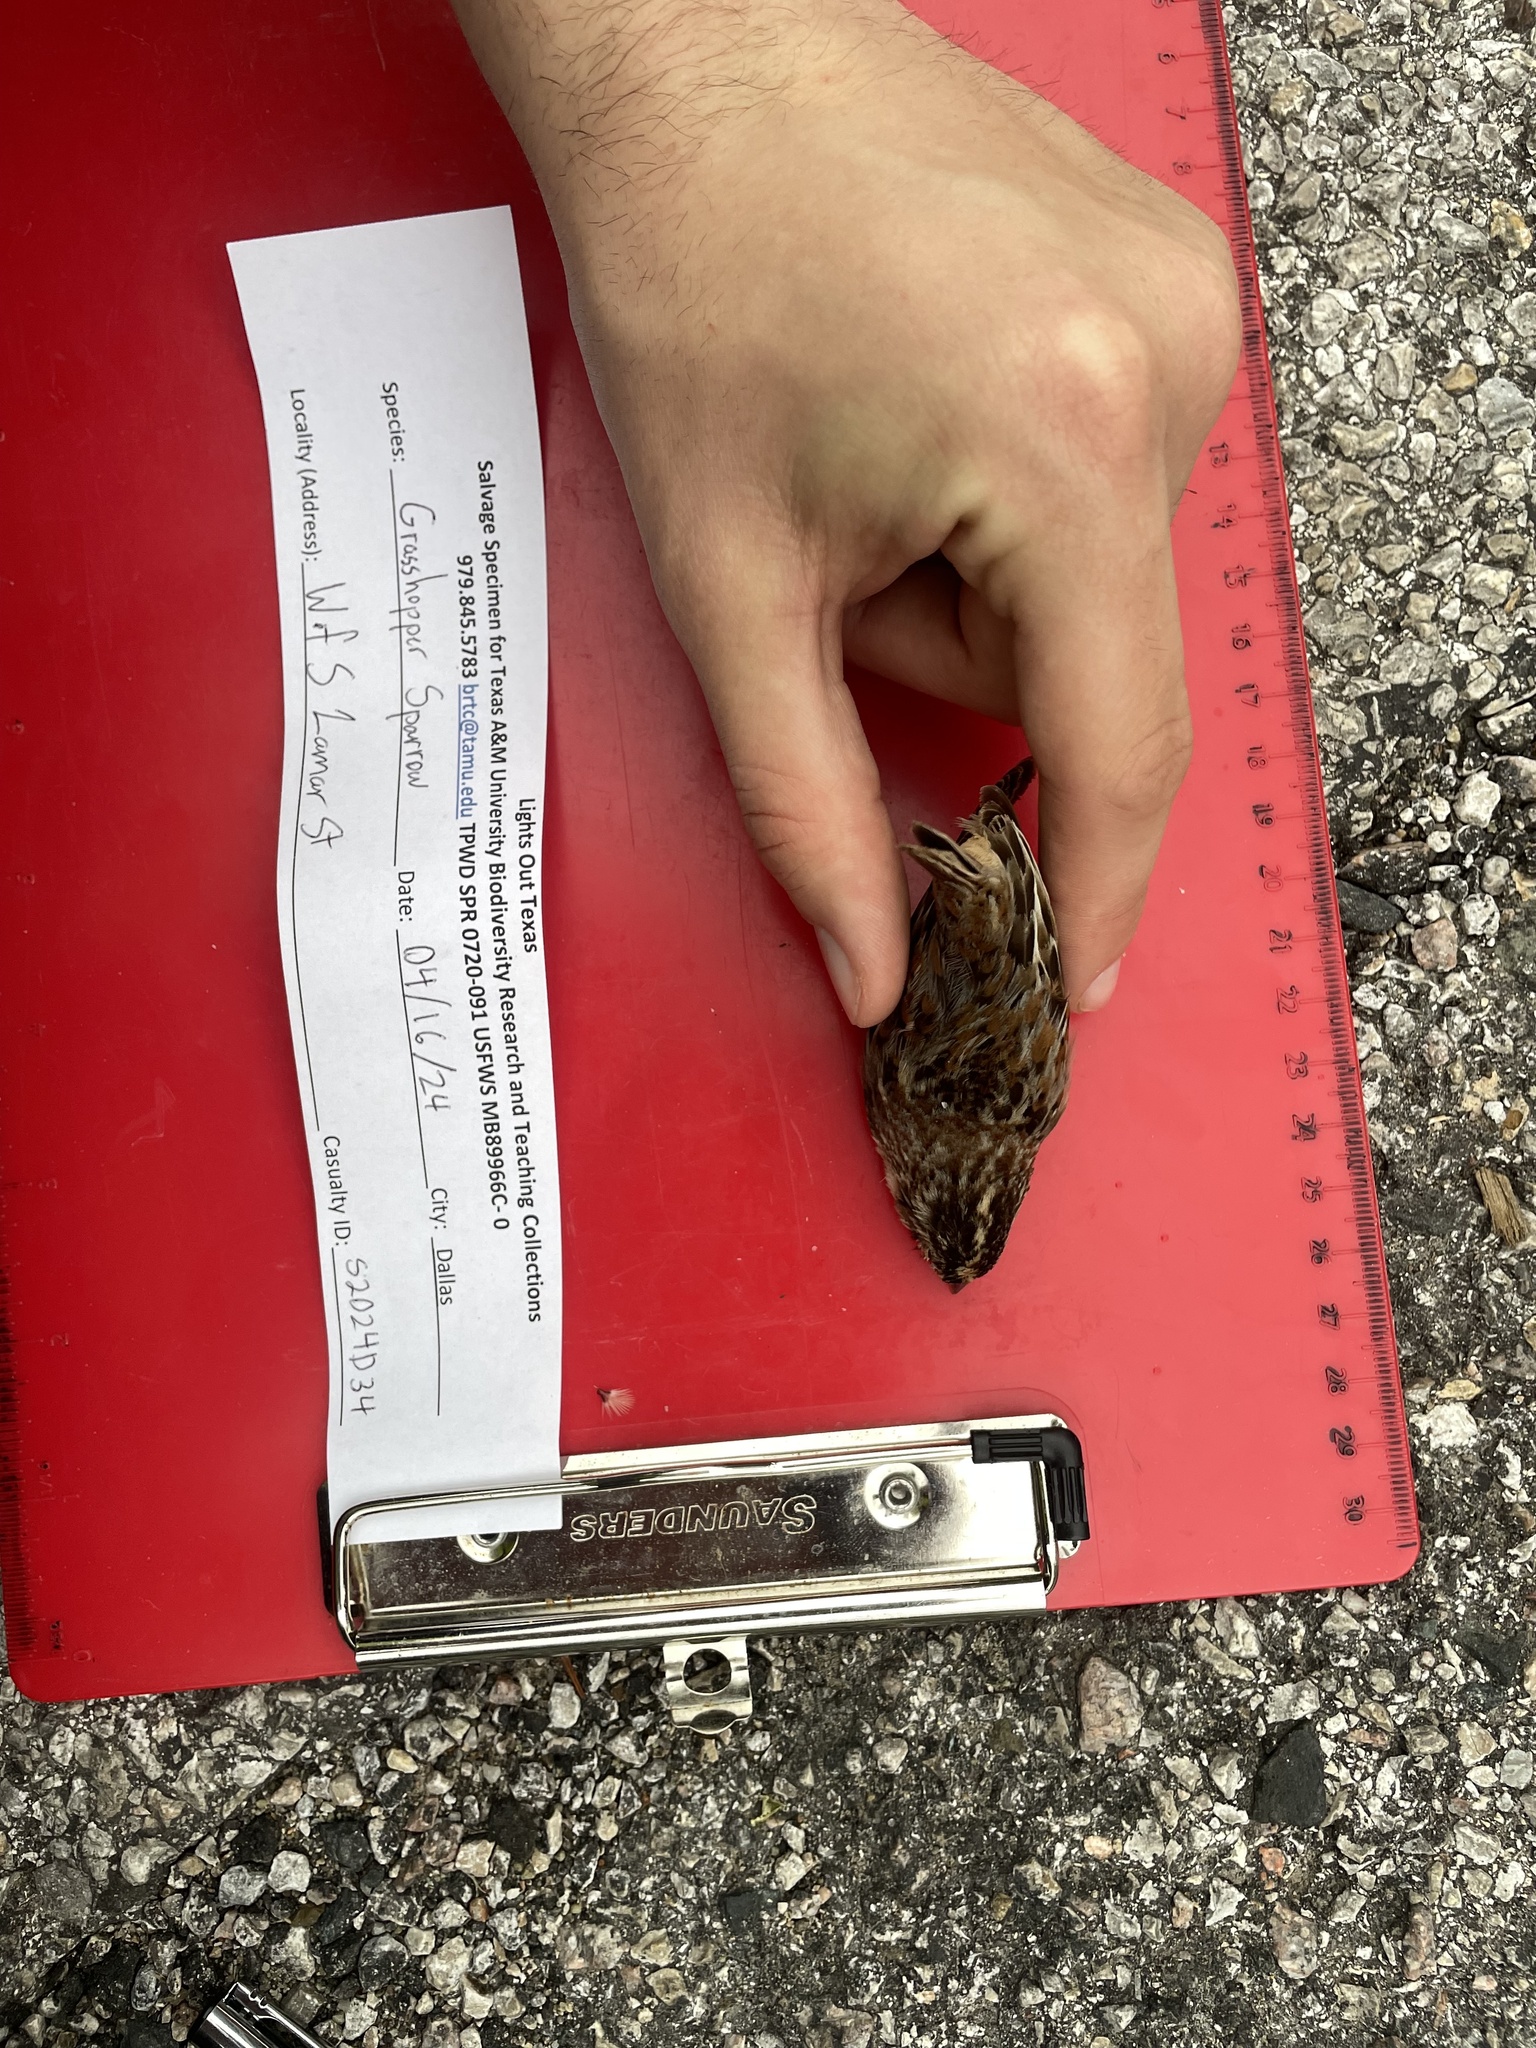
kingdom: Animalia
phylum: Chordata
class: Aves
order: Passeriformes
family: Passerellidae
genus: Ammodramus
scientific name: Ammodramus savannarum
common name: Grasshopper sparrow
